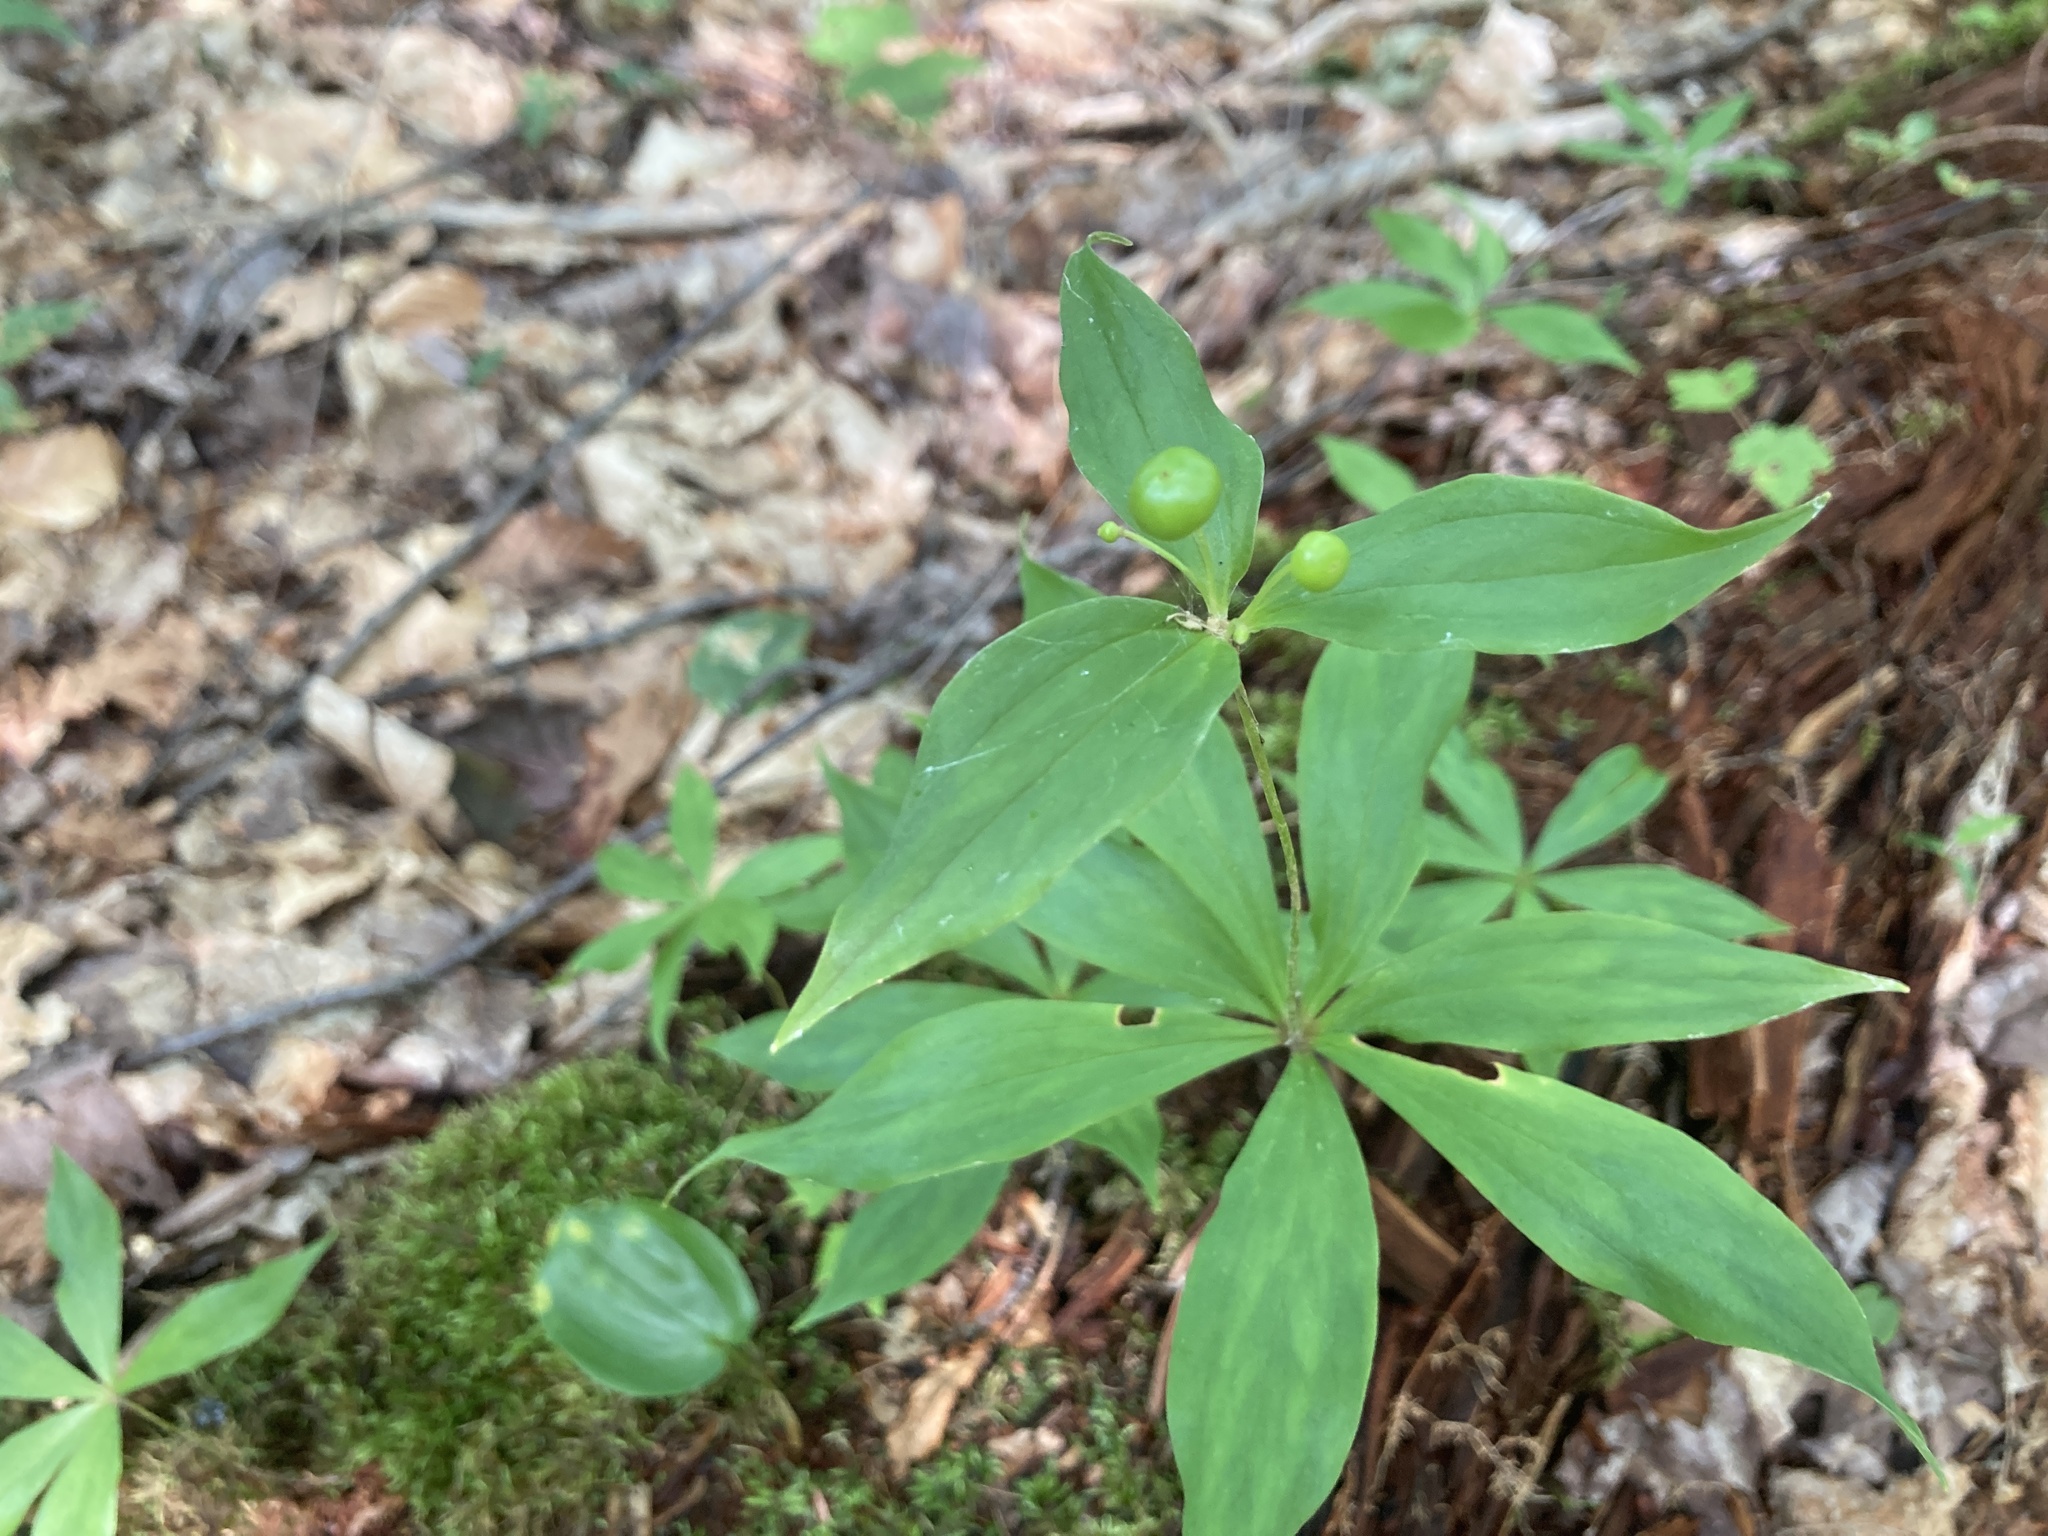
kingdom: Plantae
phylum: Tracheophyta
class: Liliopsida
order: Liliales
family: Liliaceae
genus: Medeola
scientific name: Medeola virginiana
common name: Indian cucumber-root
